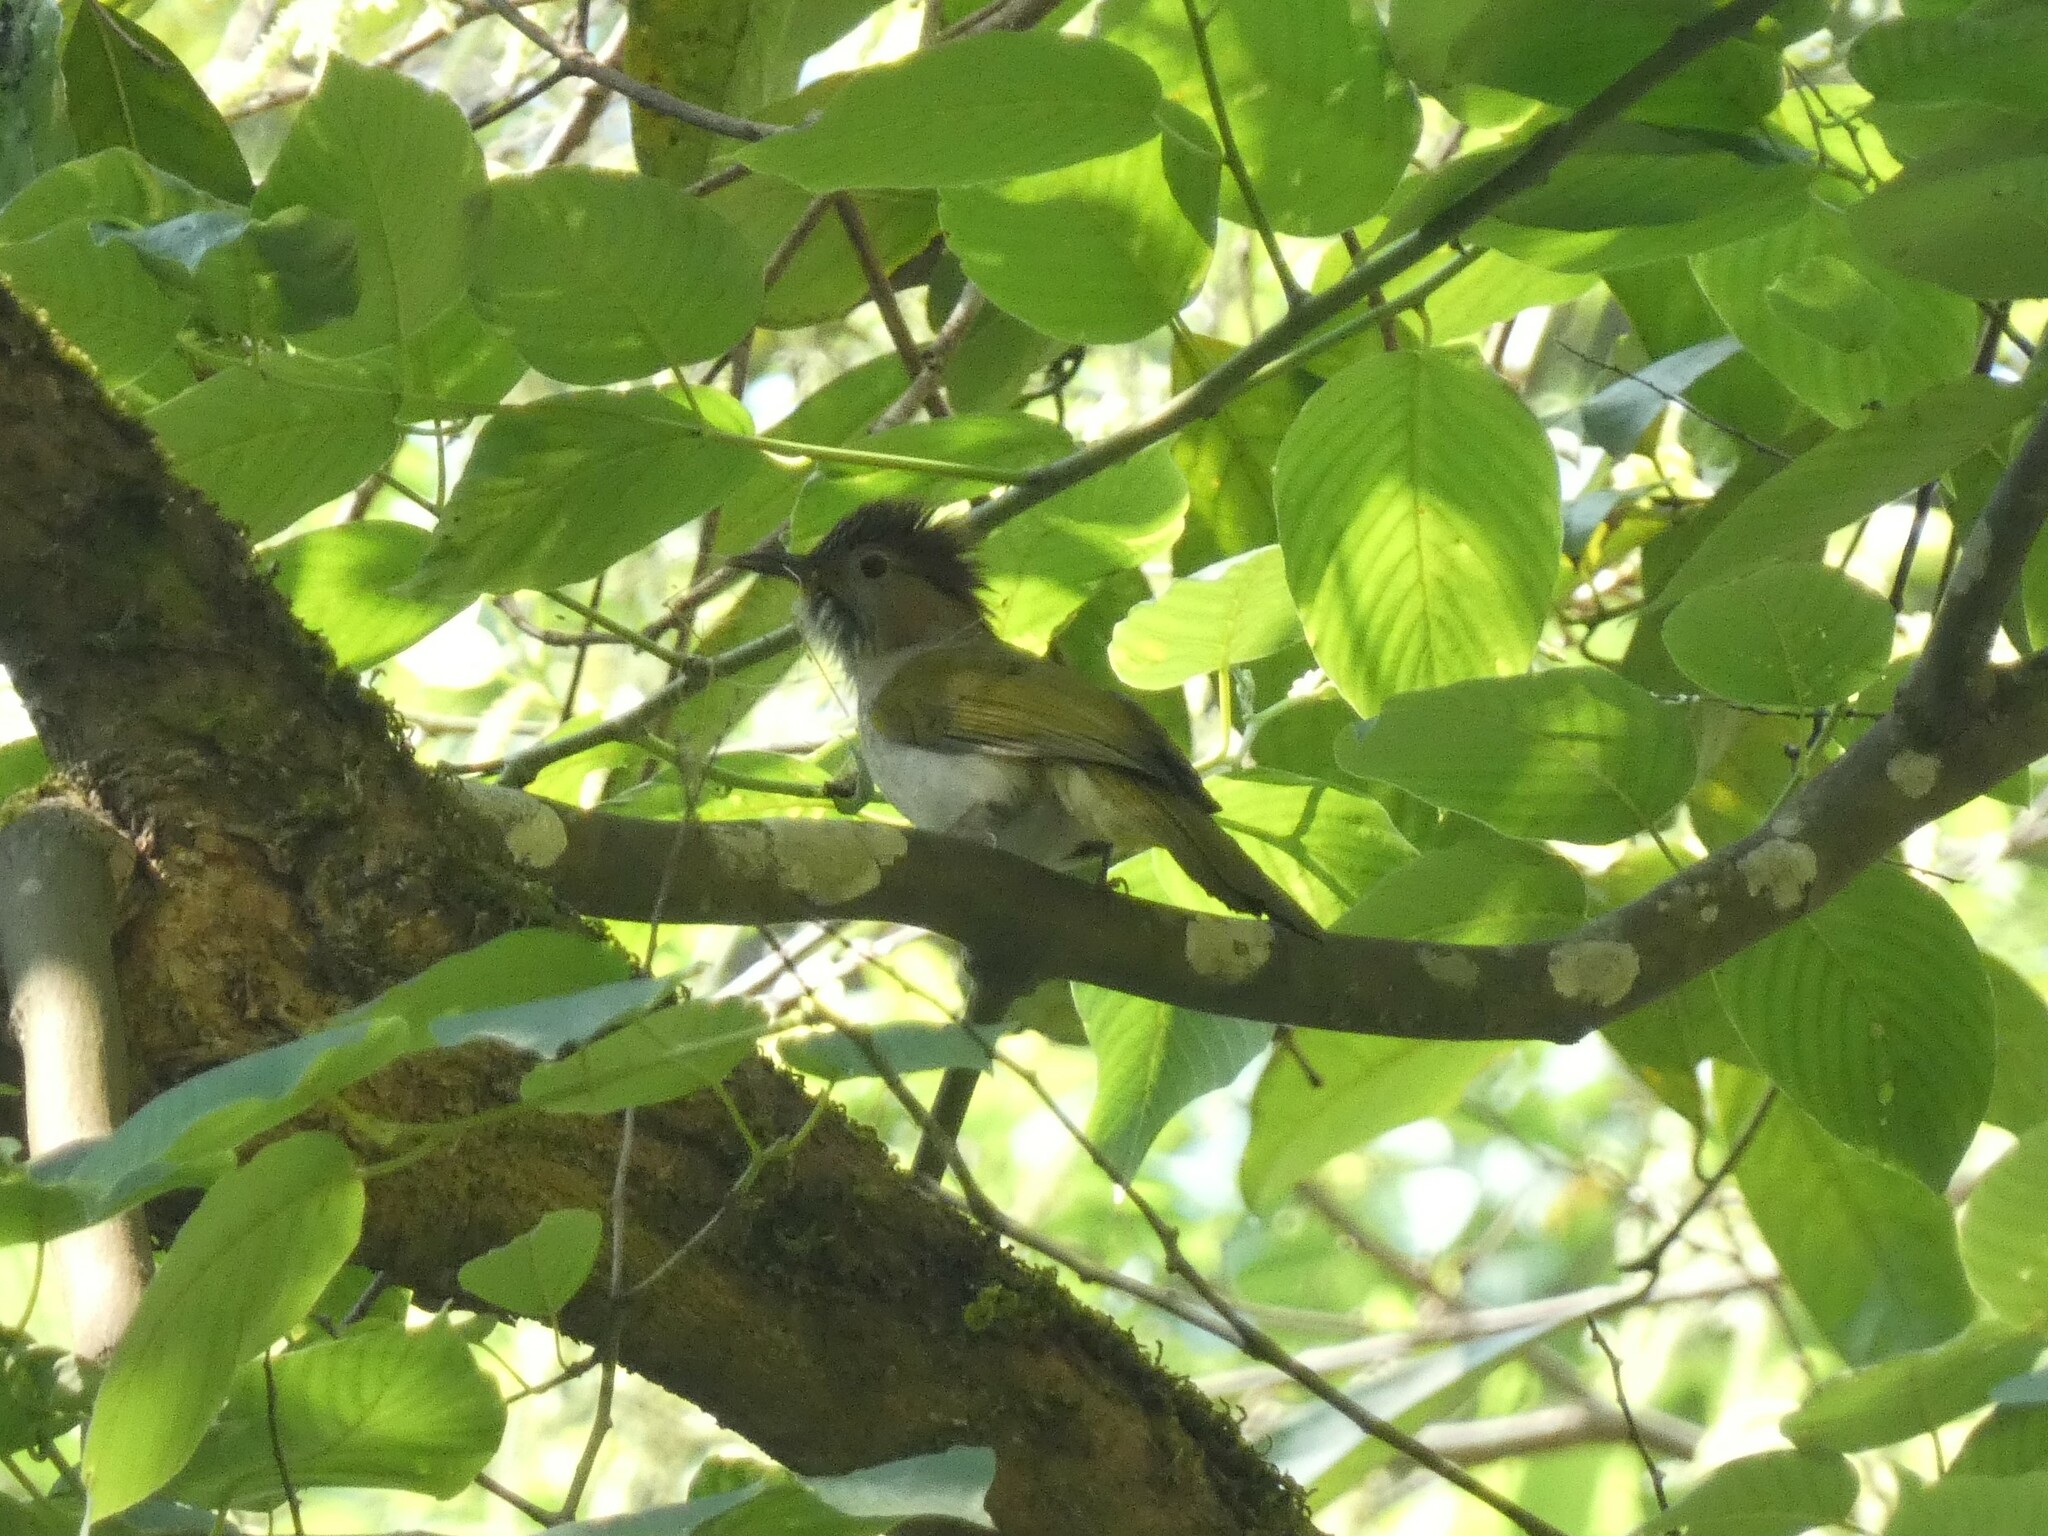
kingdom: Animalia
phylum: Chordata
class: Aves
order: Passeriformes
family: Pycnonotidae
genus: Ixos
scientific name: Ixos mcclellandii
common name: Mountain bulbul
